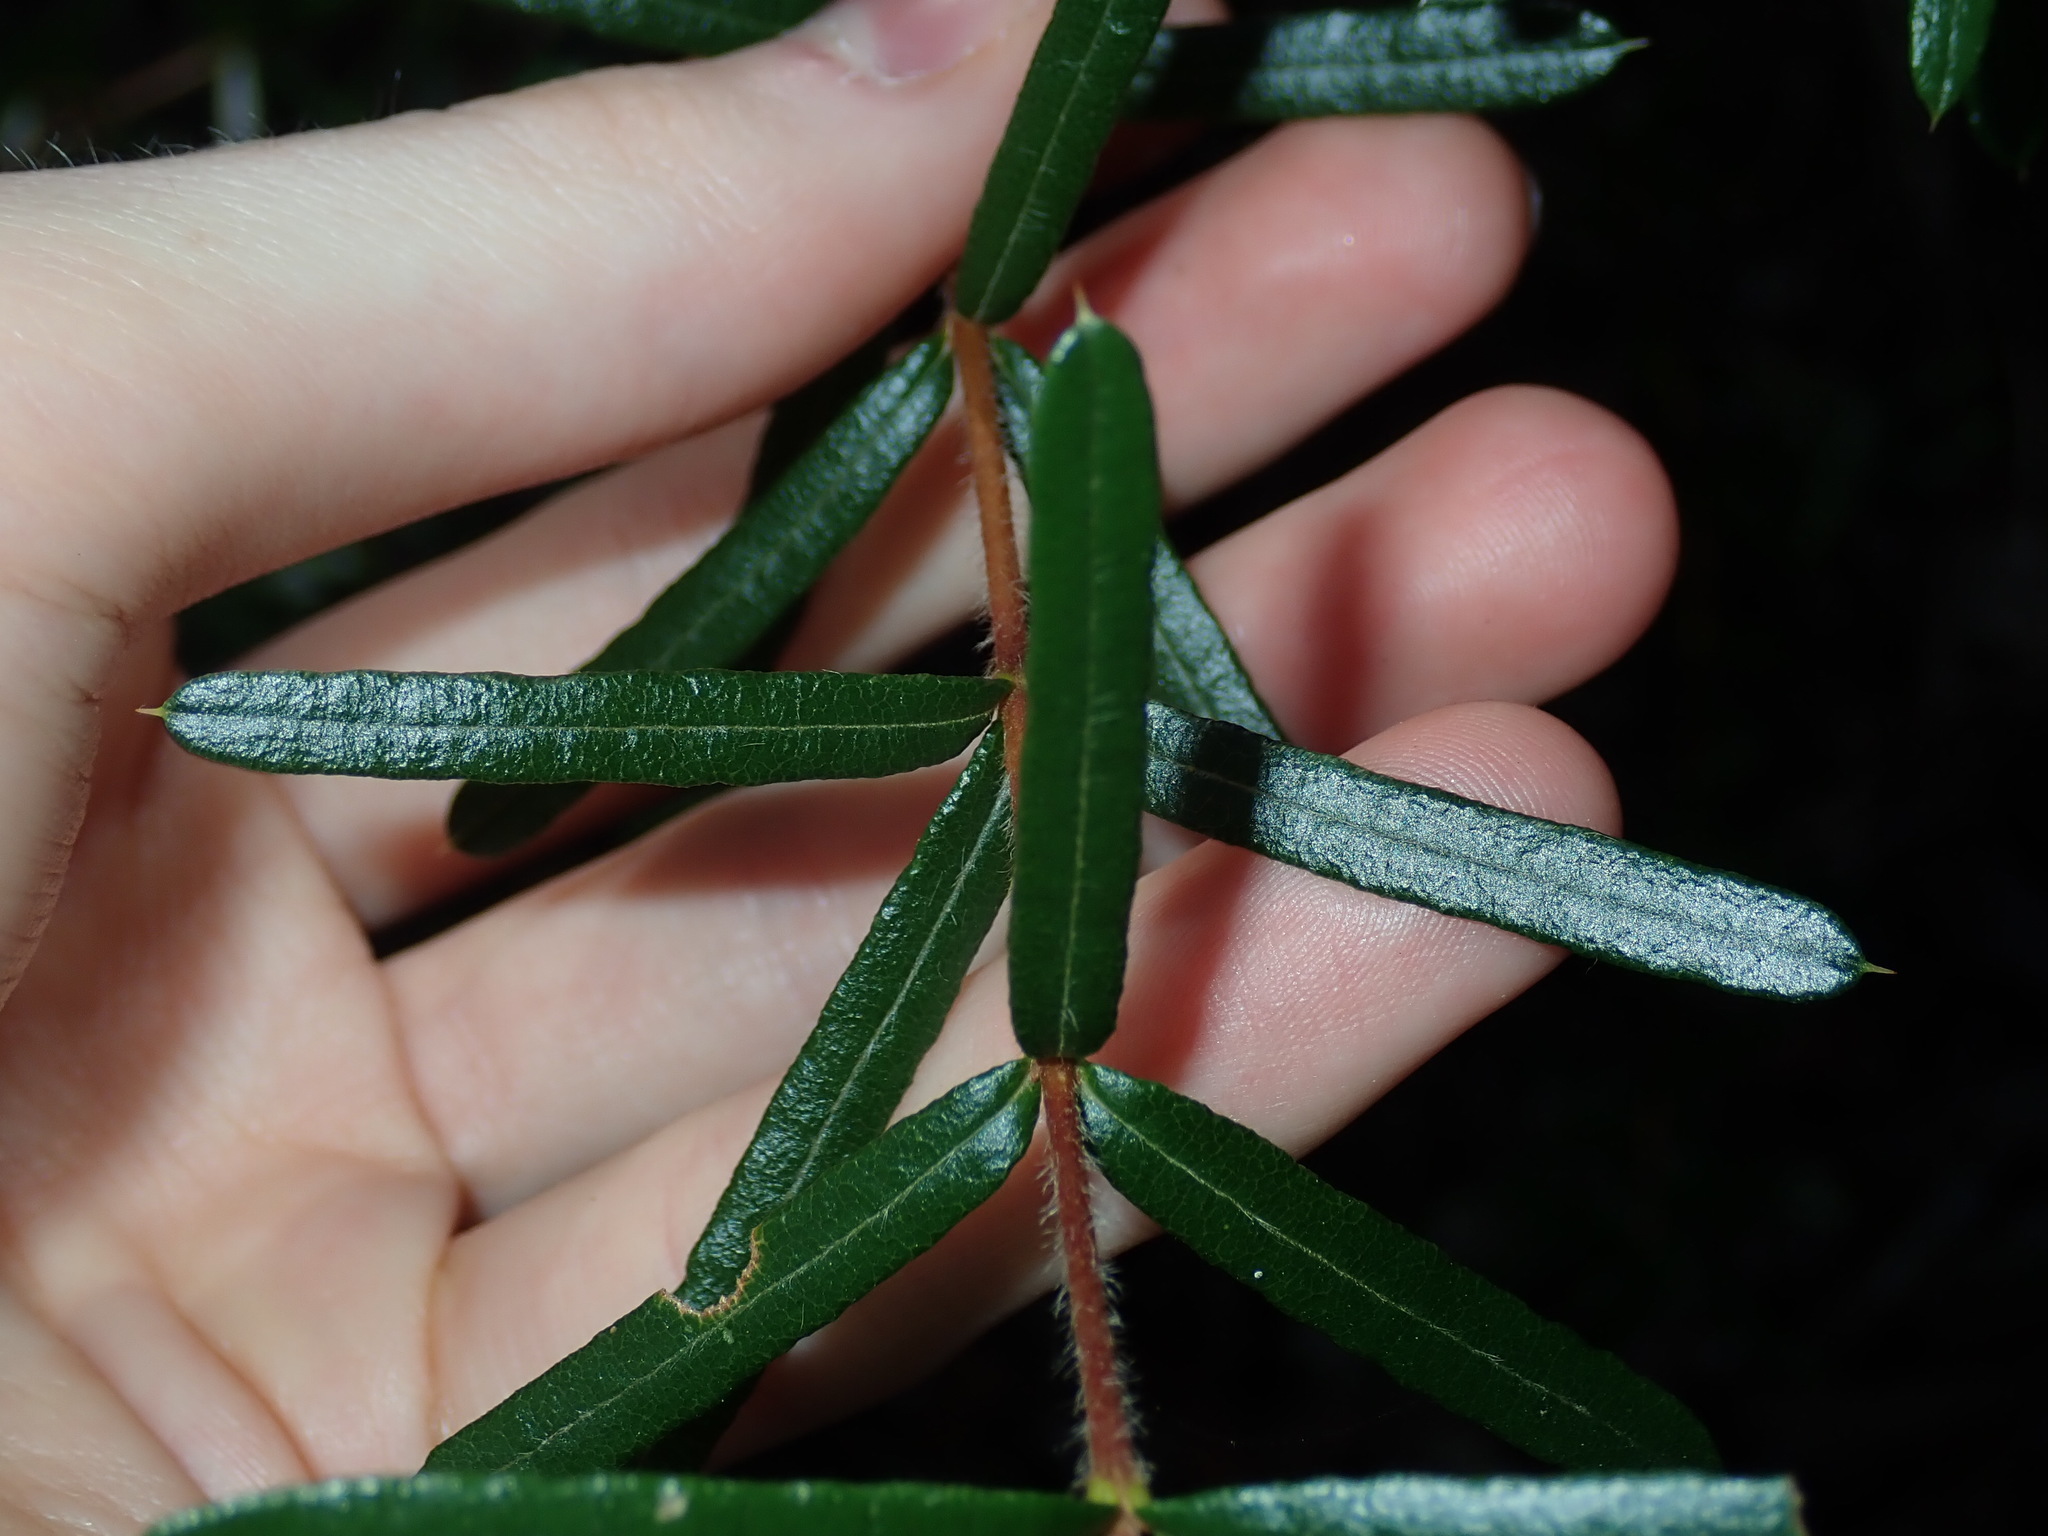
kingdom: Plantae
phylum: Tracheophyta
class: Magnoliopsida
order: Proteales
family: Proteaceae
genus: Lambertia
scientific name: Lambertia formosa
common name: Mountain-devil
